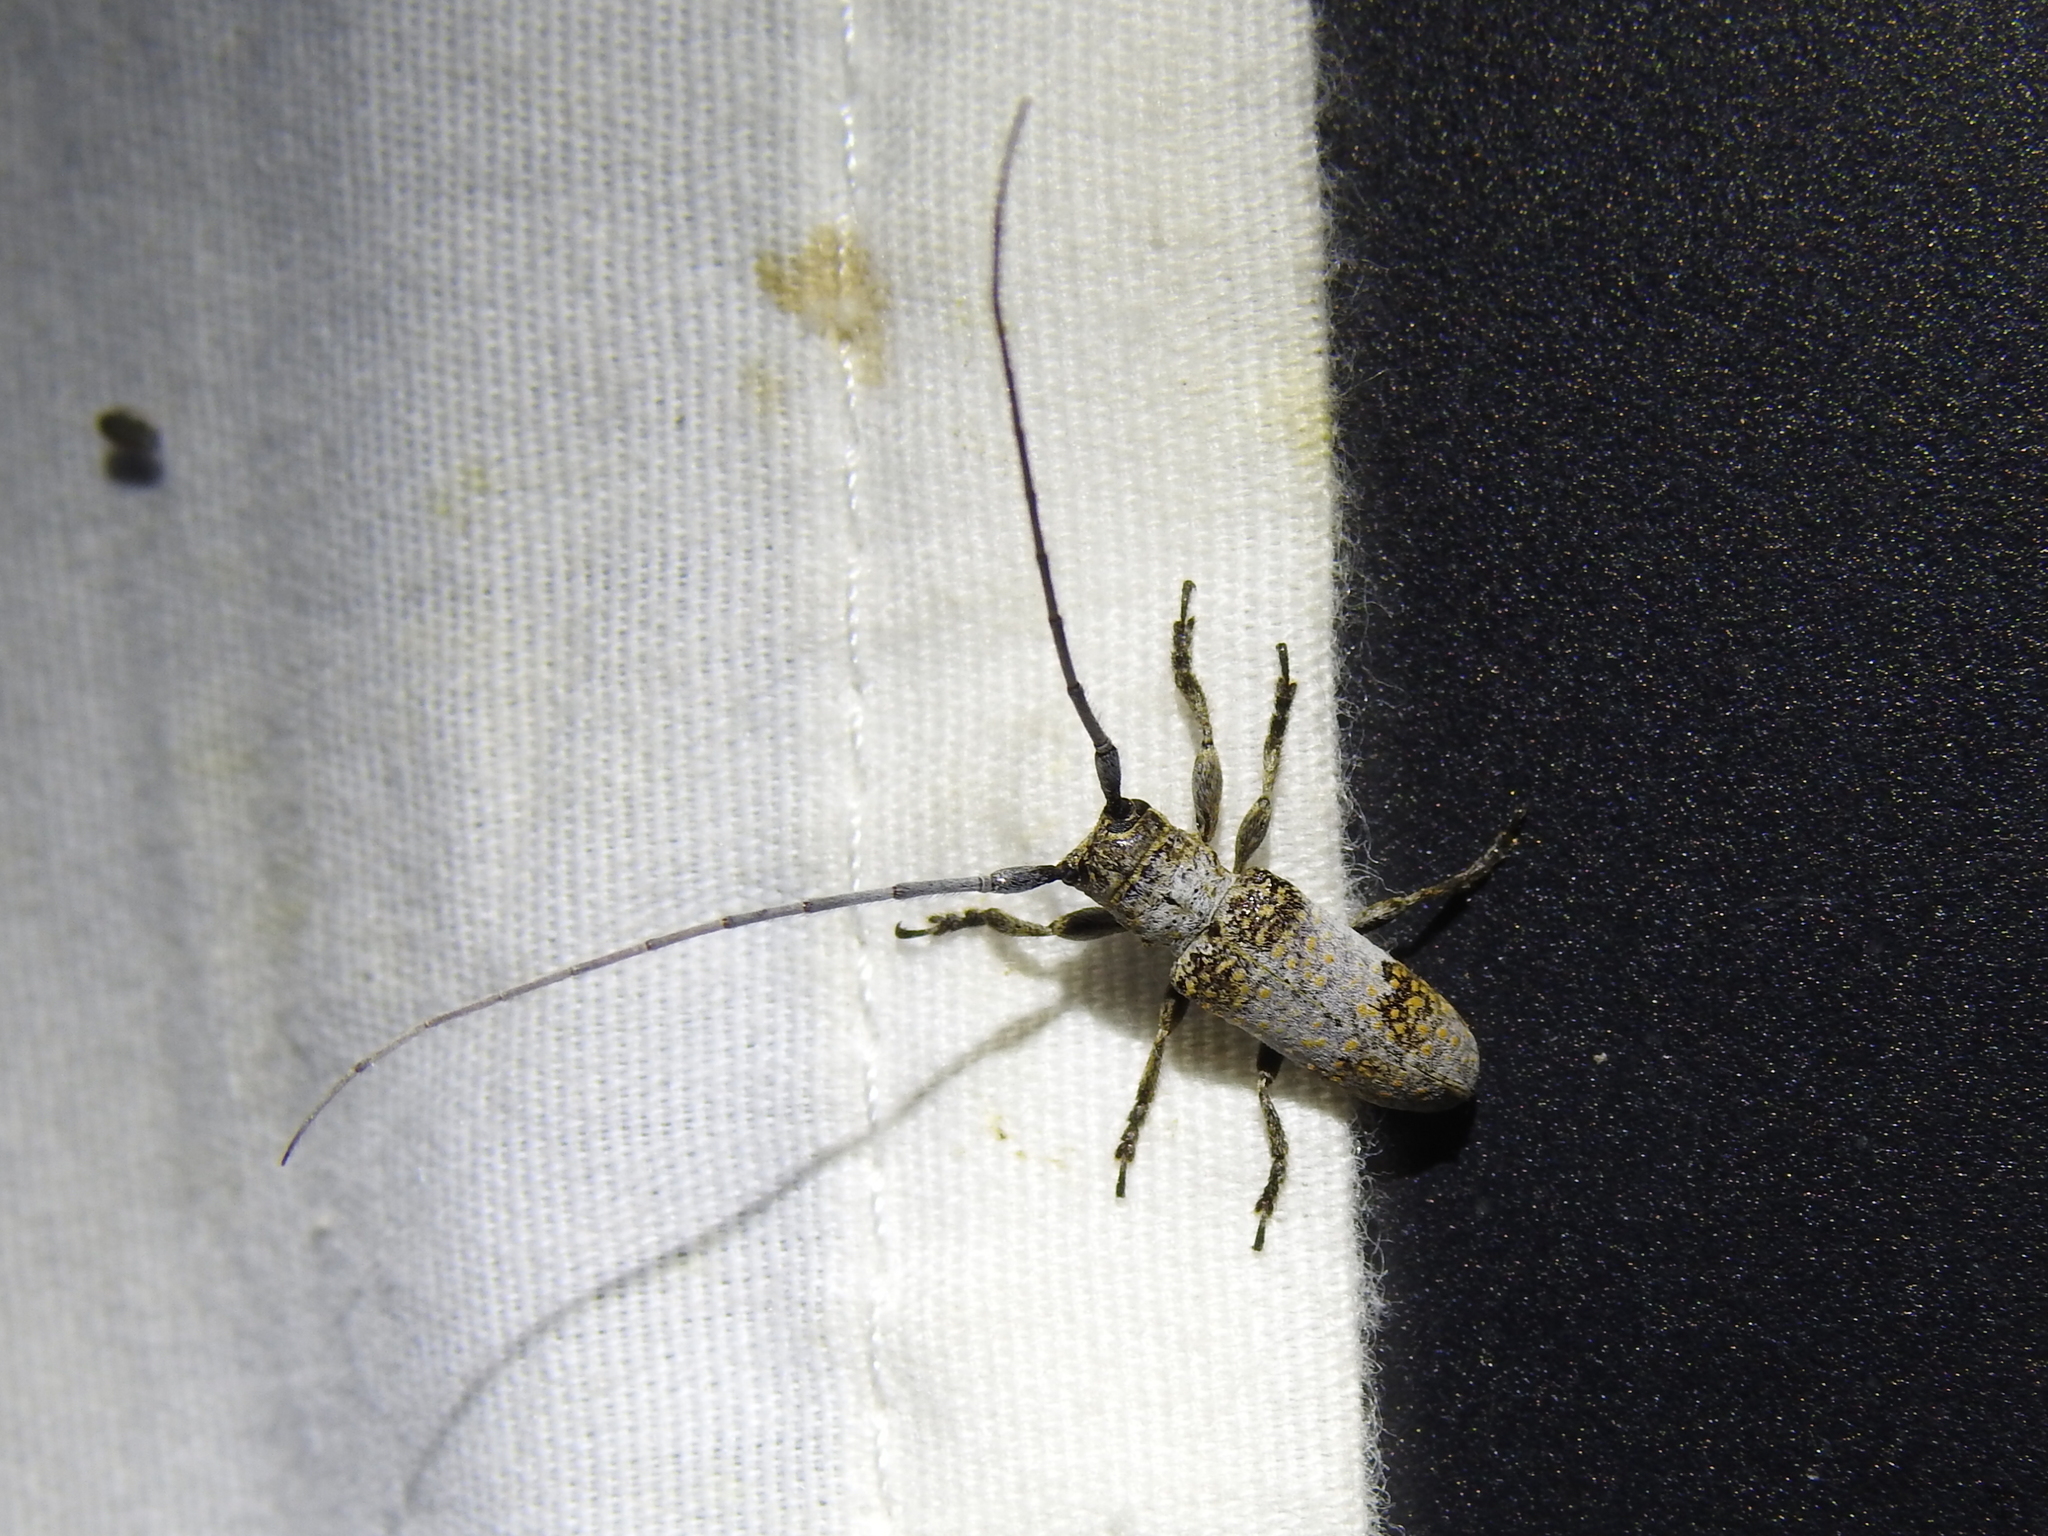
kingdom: Animalia
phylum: Arthropoda
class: Insecta
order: Coleoptera
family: Cerambycidae
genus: Oncideres
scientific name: Oncideres cingulata
